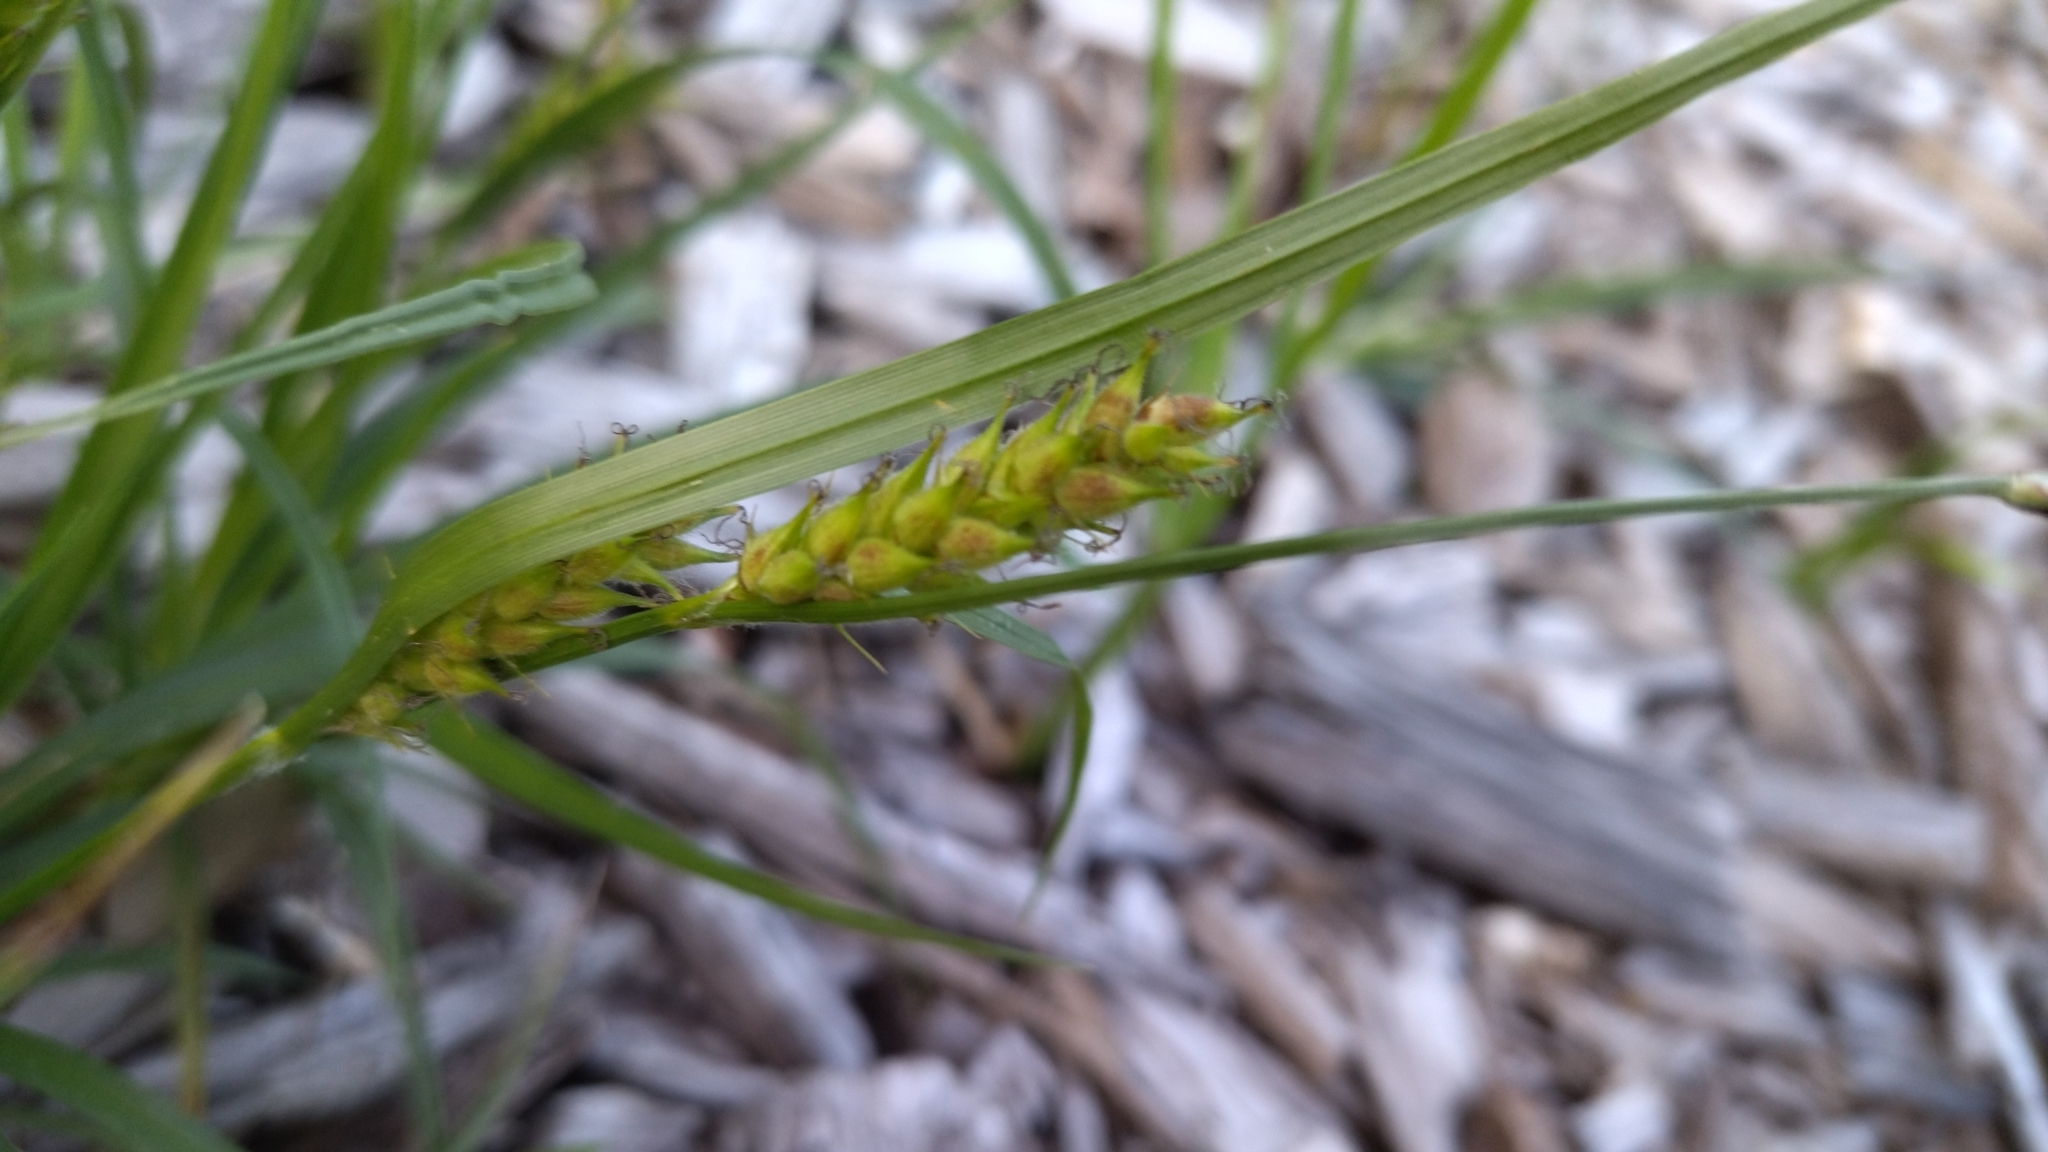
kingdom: Plantae
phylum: Tracheophyta
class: Liliopsida
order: Poales
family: Cyperaceae
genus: Carex
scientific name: Carex hirta
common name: Hairy sedge
